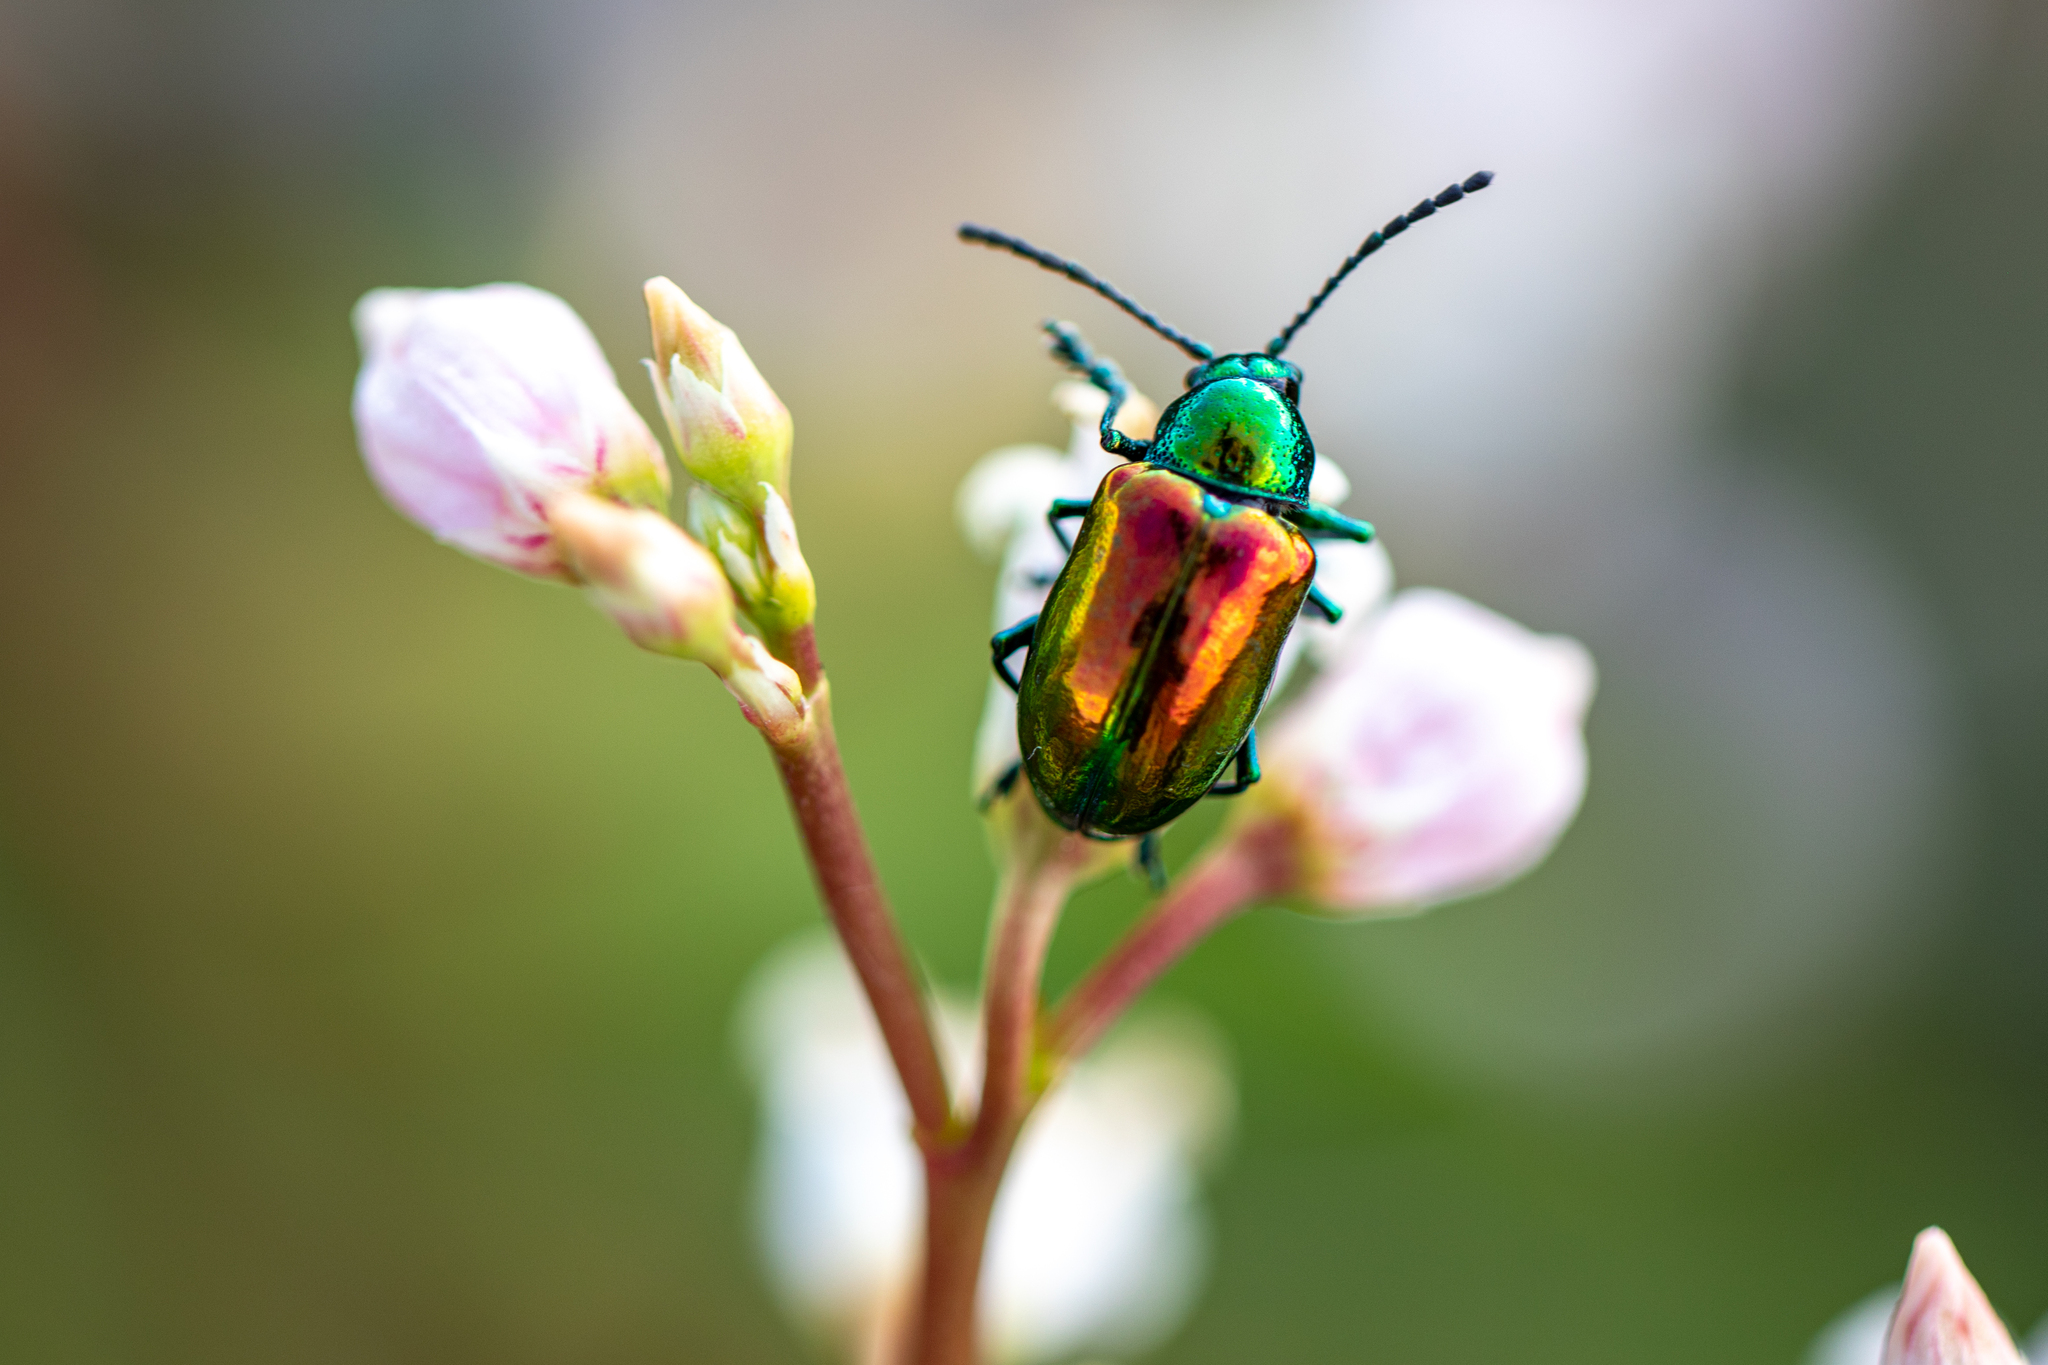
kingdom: Animalia
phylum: Arthropoda
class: Insecta
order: Coleoptera
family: Chrysomelidae
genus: Chrysochus
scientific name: Chrysochus auratus
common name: Dogbane leaf beetle
